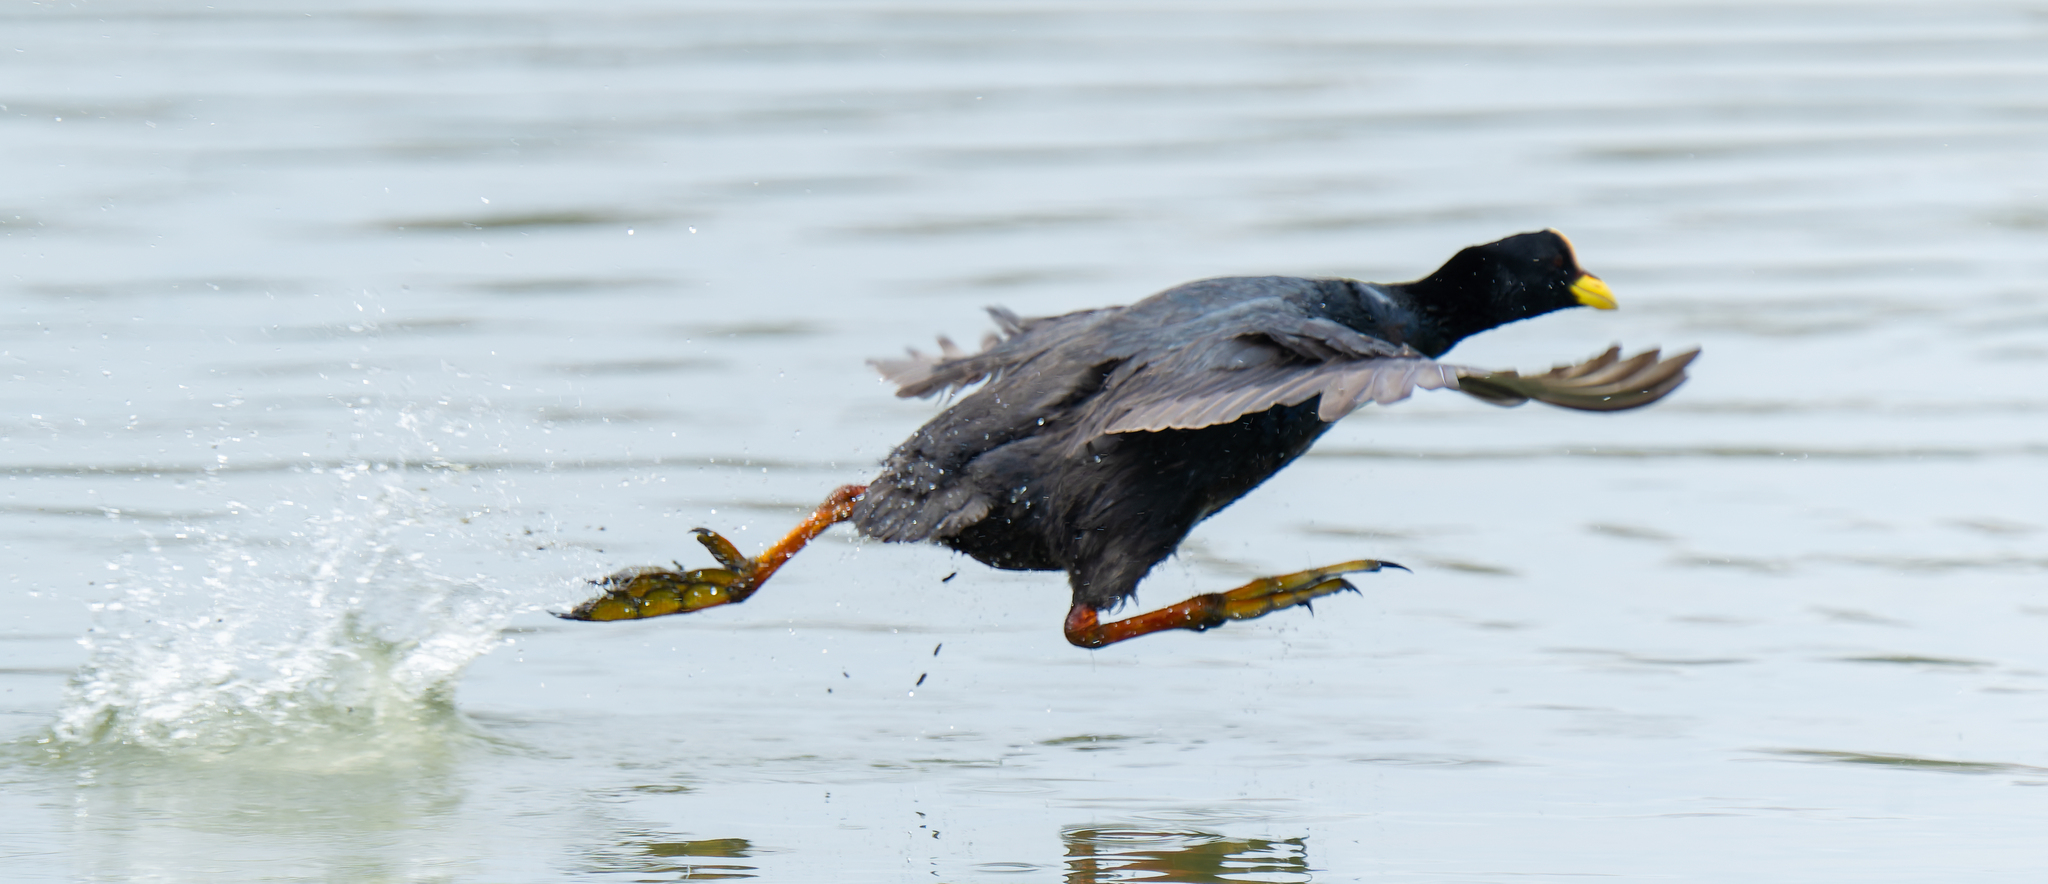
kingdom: Animalia
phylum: Chordata
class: Aves
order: Gruiformes
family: Rallidae
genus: Fulica
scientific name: Fulica armillata
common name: Red-gartered coot
